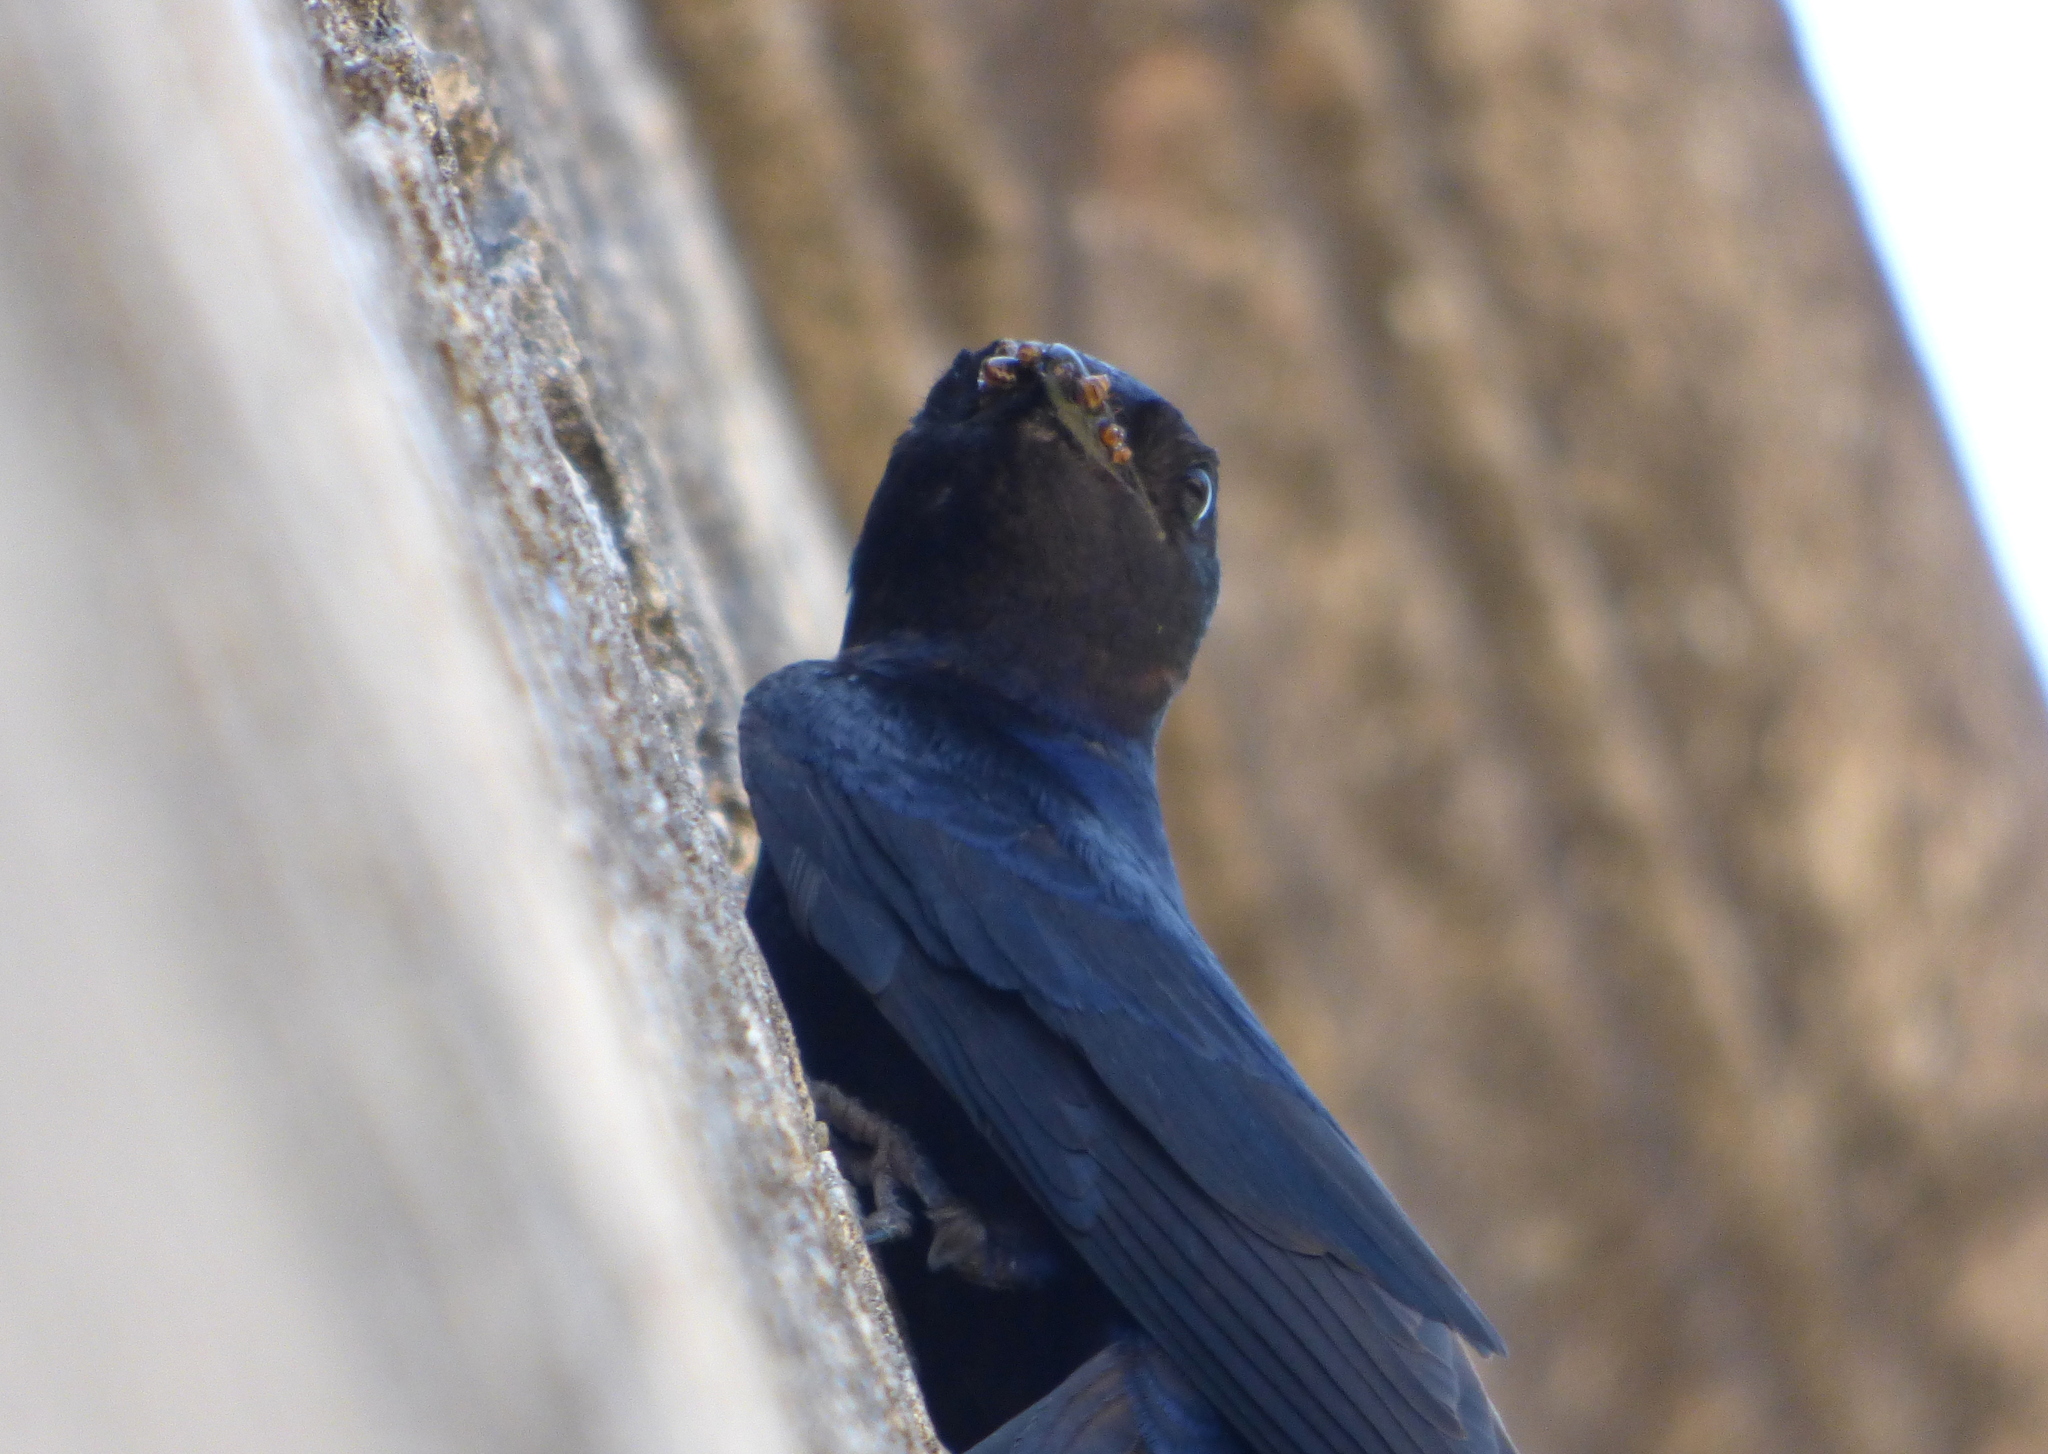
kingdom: Animalia
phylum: Chordata
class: Aves
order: Passeriformes
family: Hirundinidae
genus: Progne
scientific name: Progne elegans
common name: Southern martin
